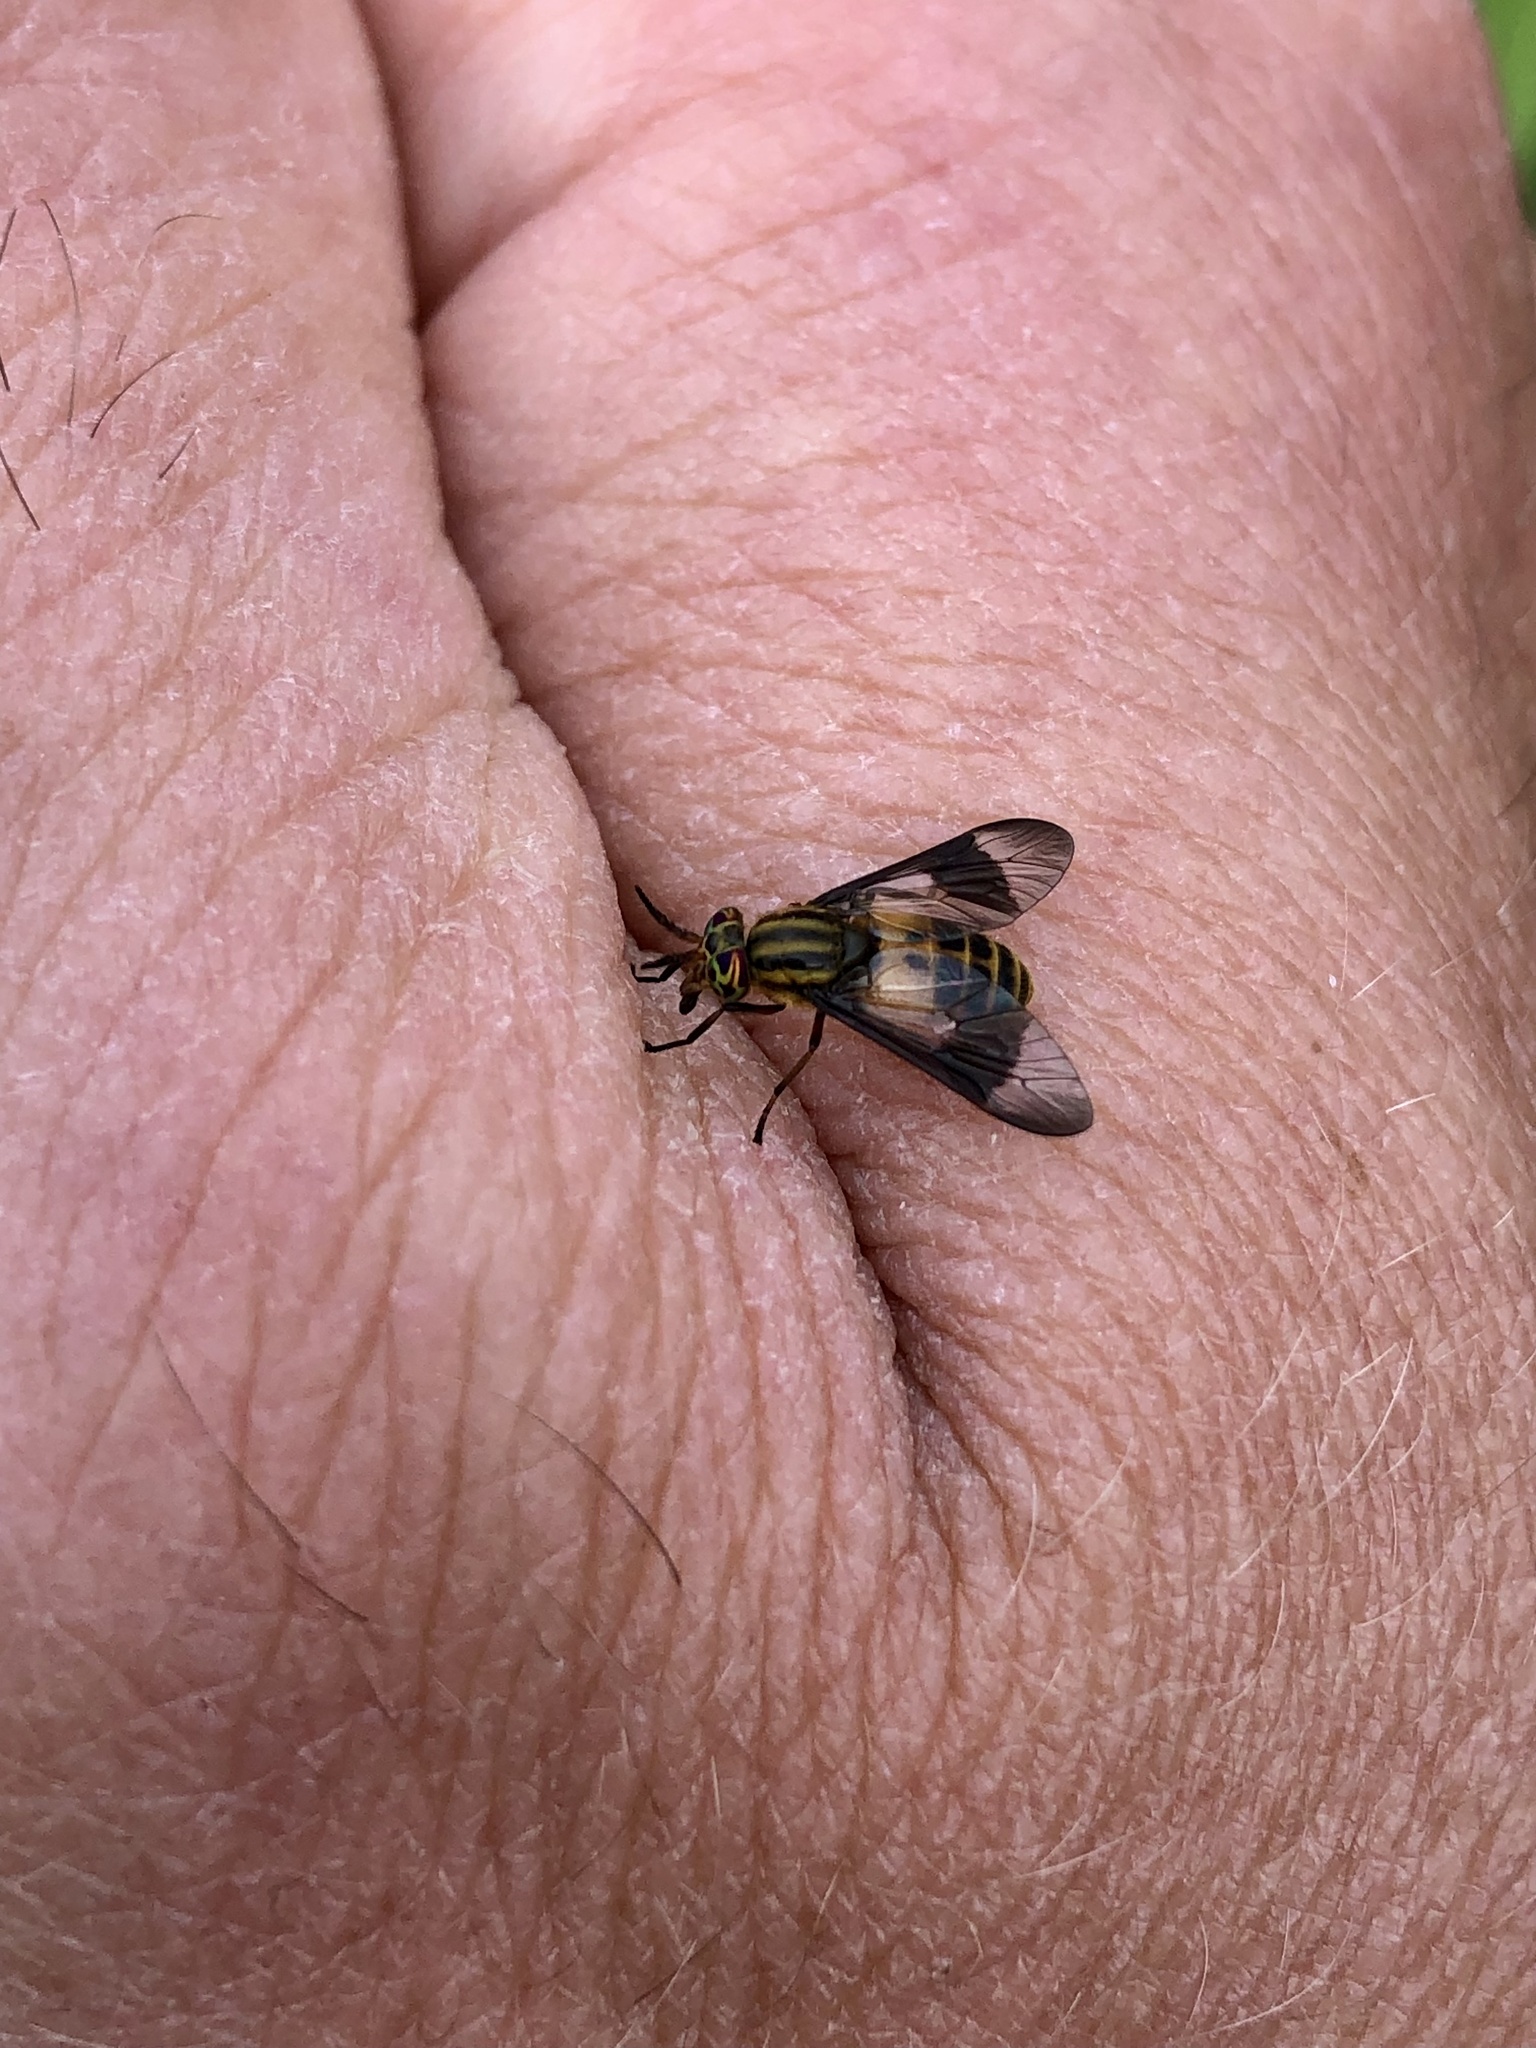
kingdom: Animalia
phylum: Arthropoda
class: Insecta
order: Diptera
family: Tabanidae
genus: Chrysops
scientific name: Chrysops geminatus
